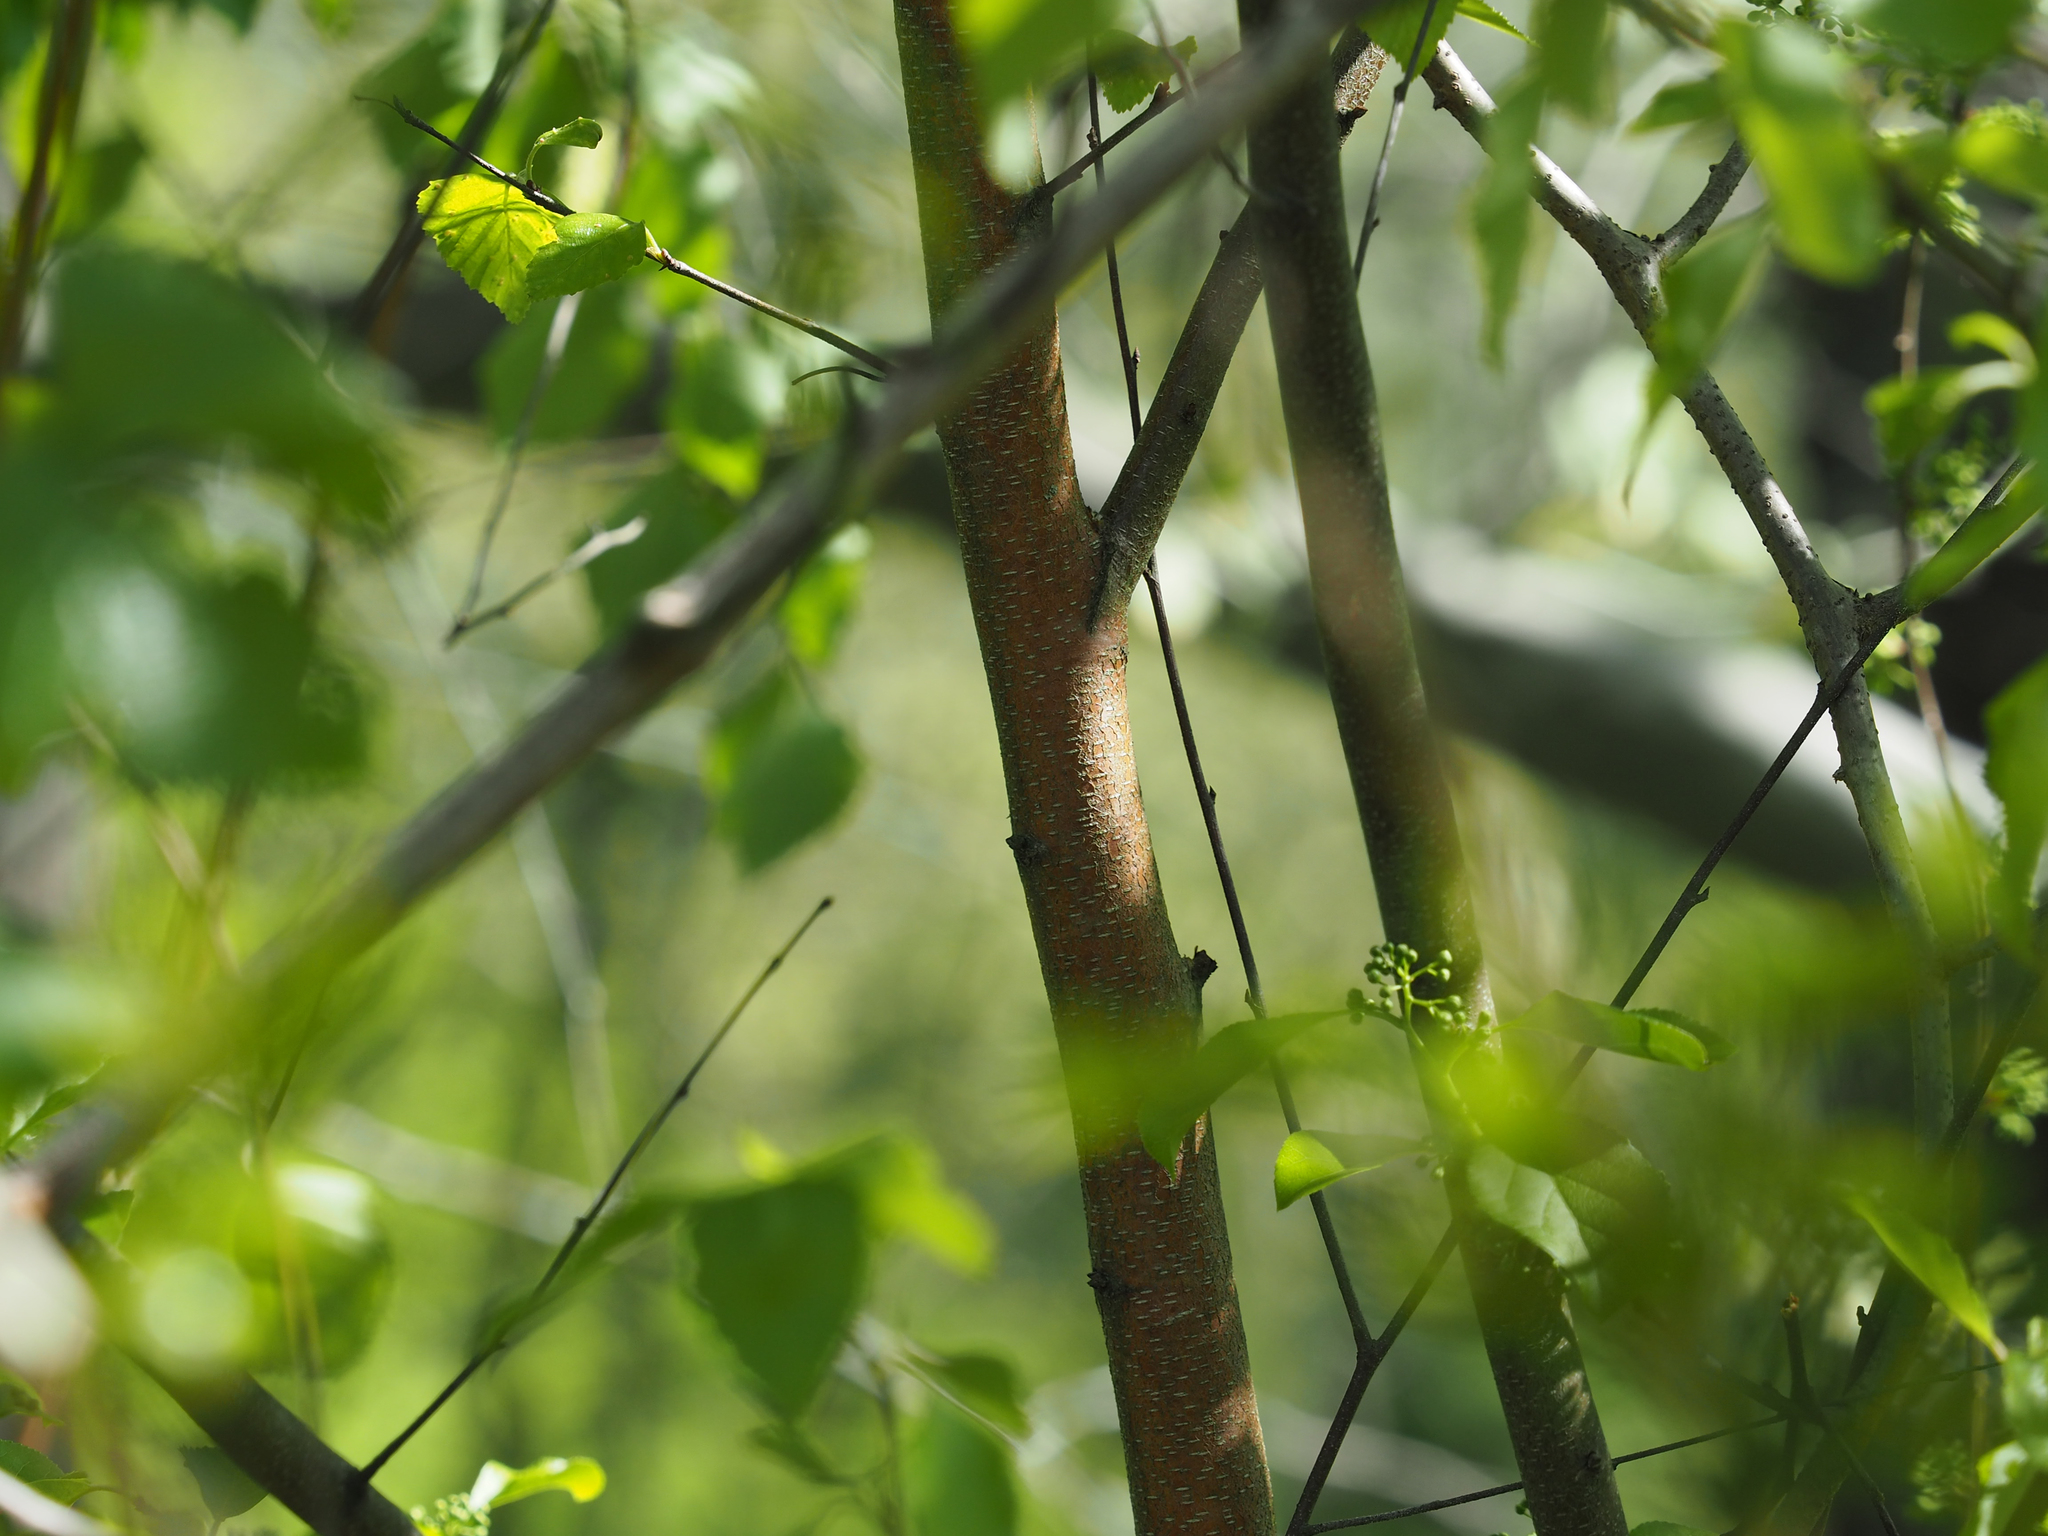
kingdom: Plantae
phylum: Tracheophyta
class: Magnoliopsida
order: Fagales
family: Betulaceae
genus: Betula
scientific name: Betula nigra
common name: Black birch
